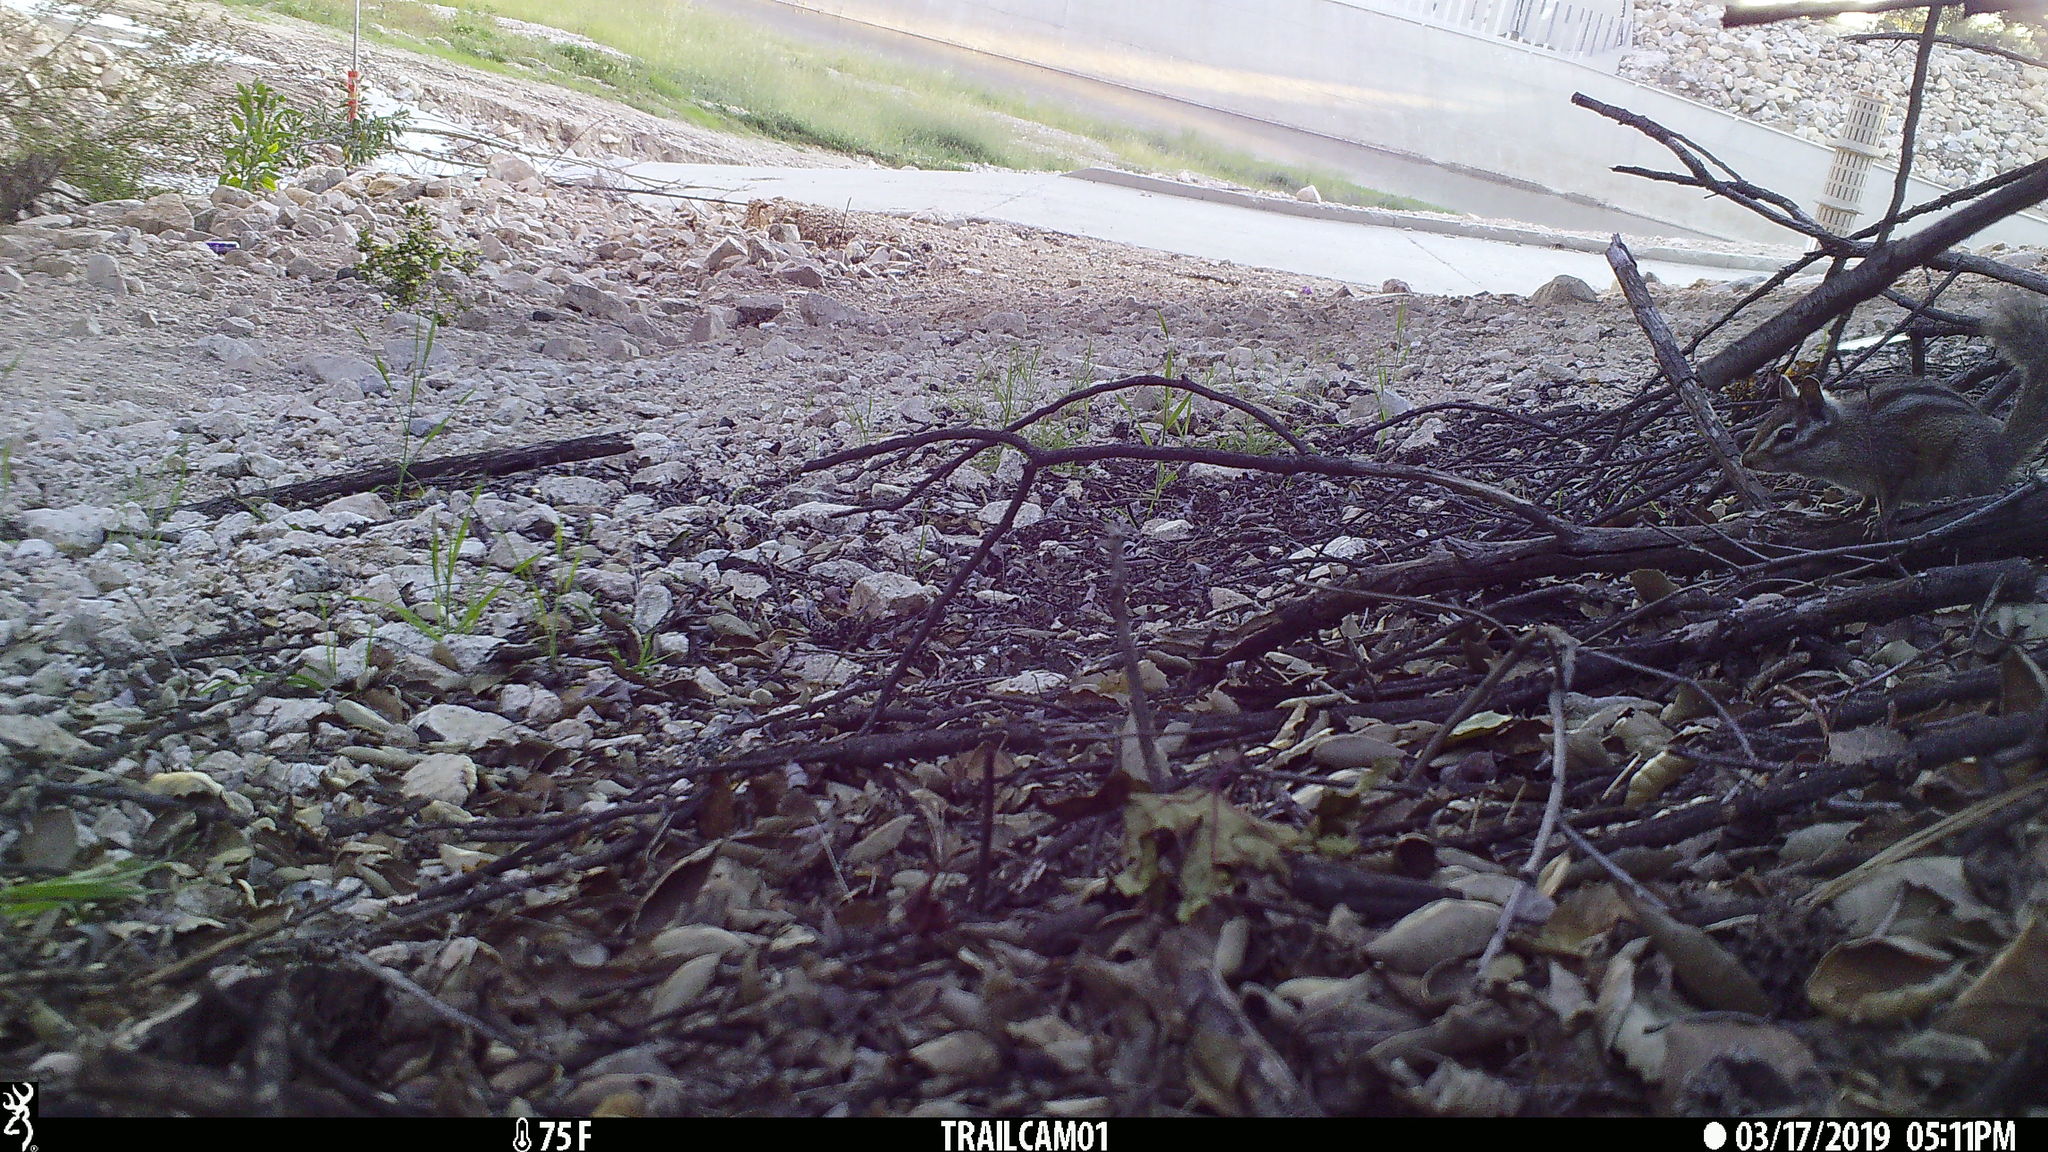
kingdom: Animalia
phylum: Chordata
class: Mammalia
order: Rodentia
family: Sciuridae
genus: Tamias
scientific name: Tamias merriami
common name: Merriam's chipmunk
